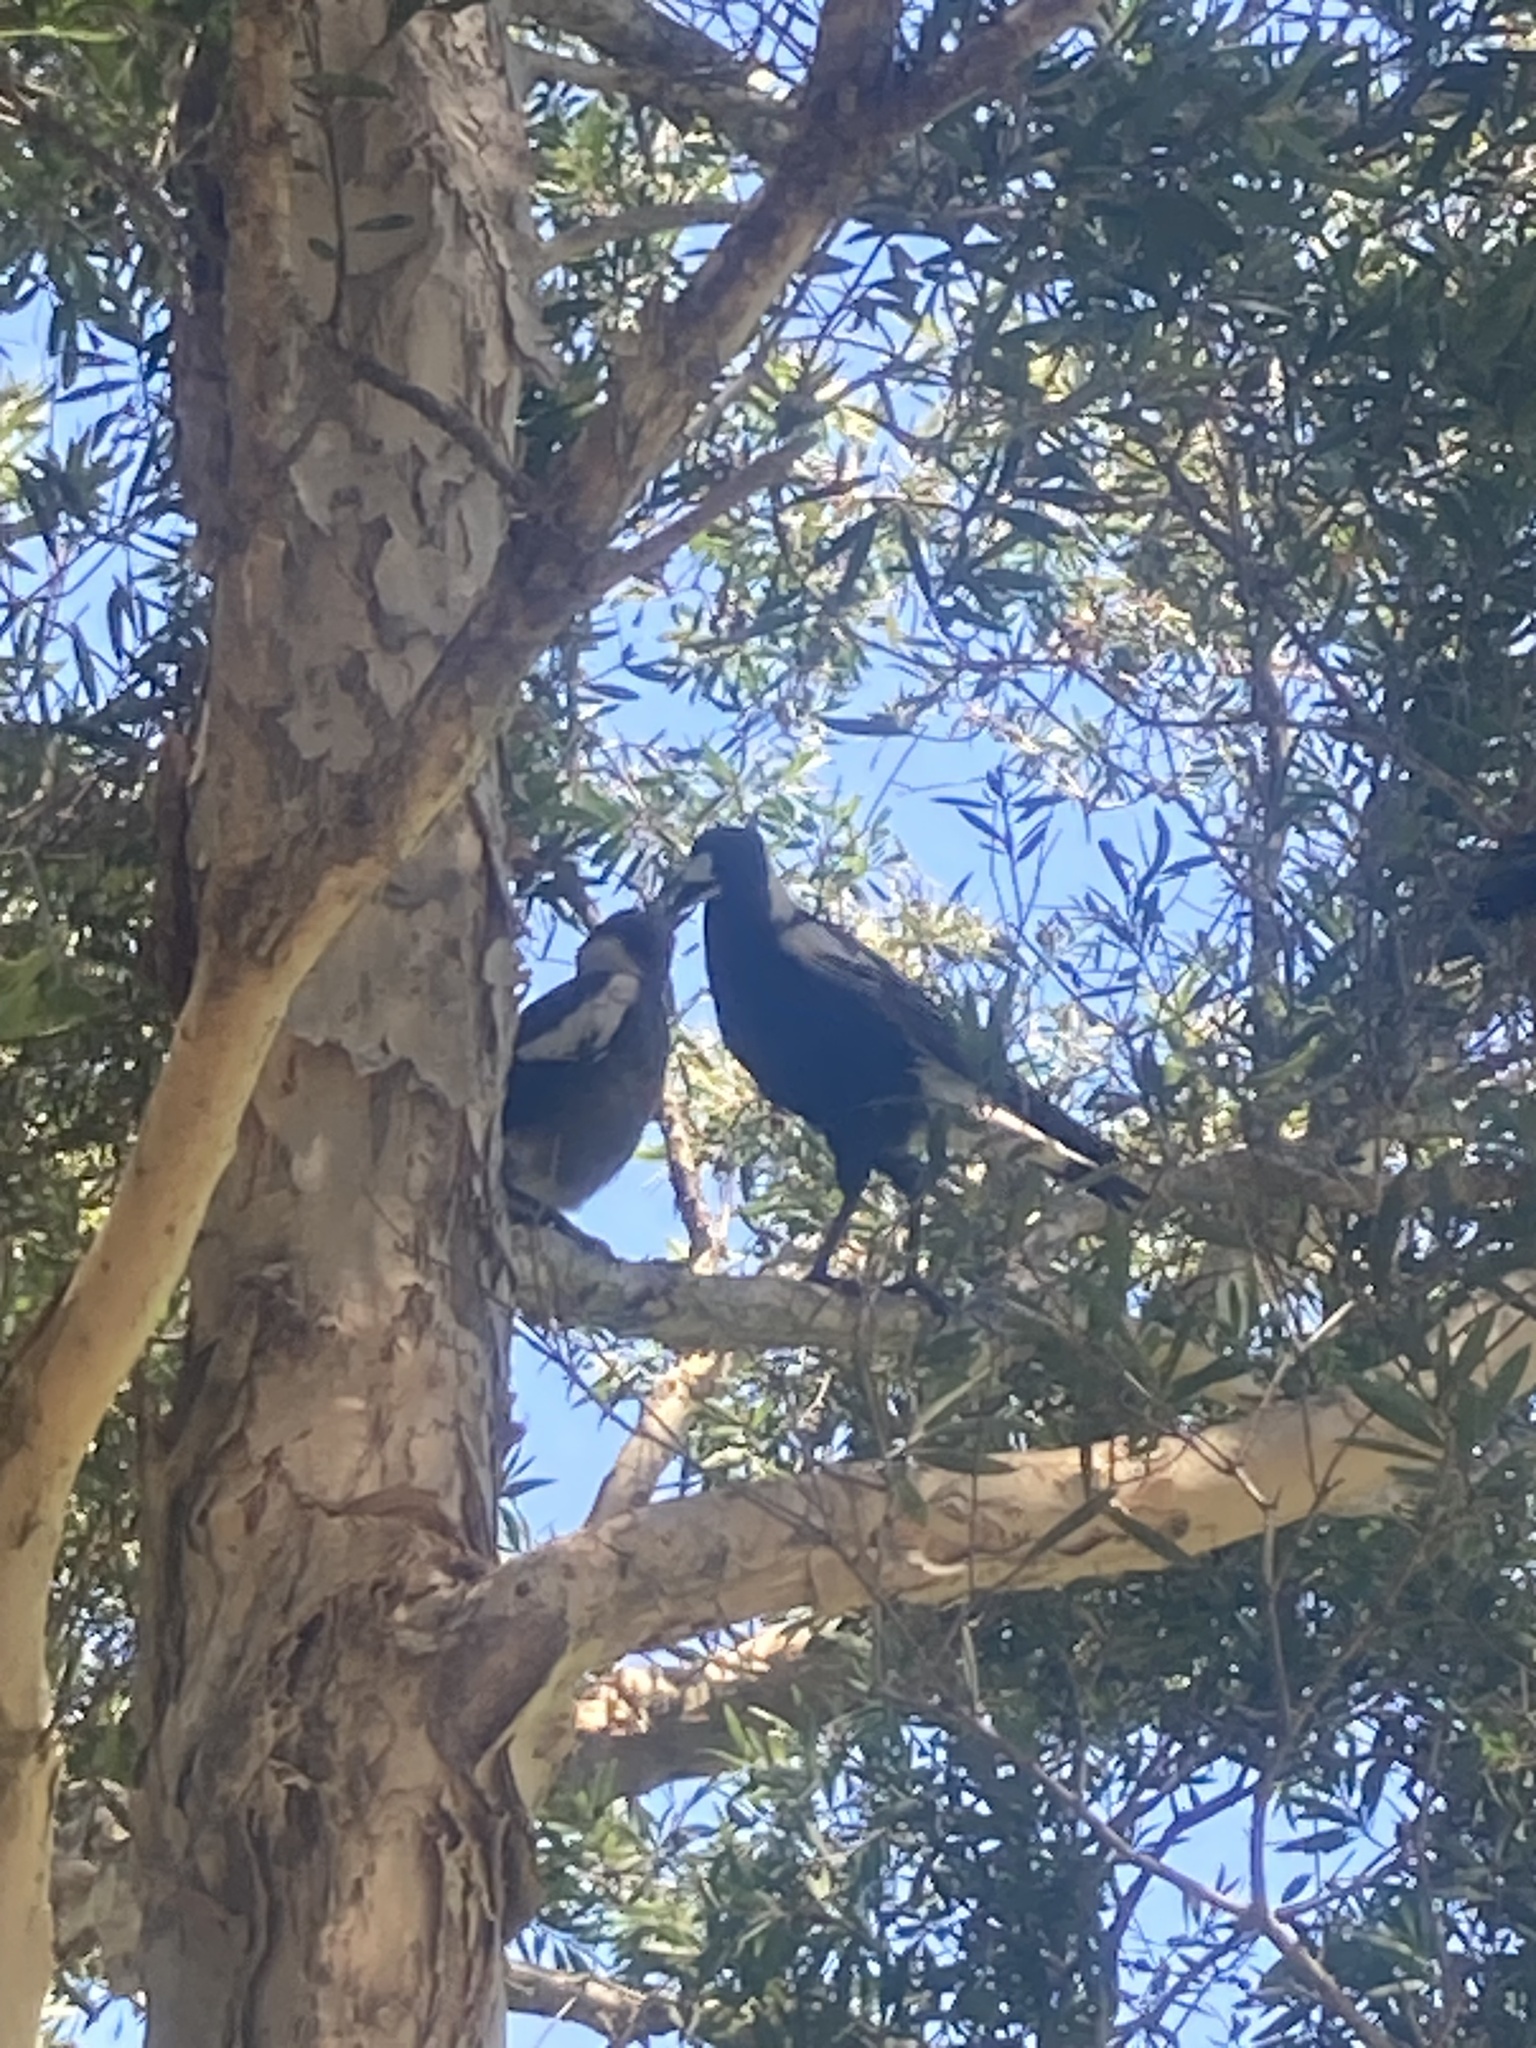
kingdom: Animalia
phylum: Chordata
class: Aves
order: Passeriformes
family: Cracticidae
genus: Gymnorhina
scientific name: Gymnorhina tibicen
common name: Australian magpie
